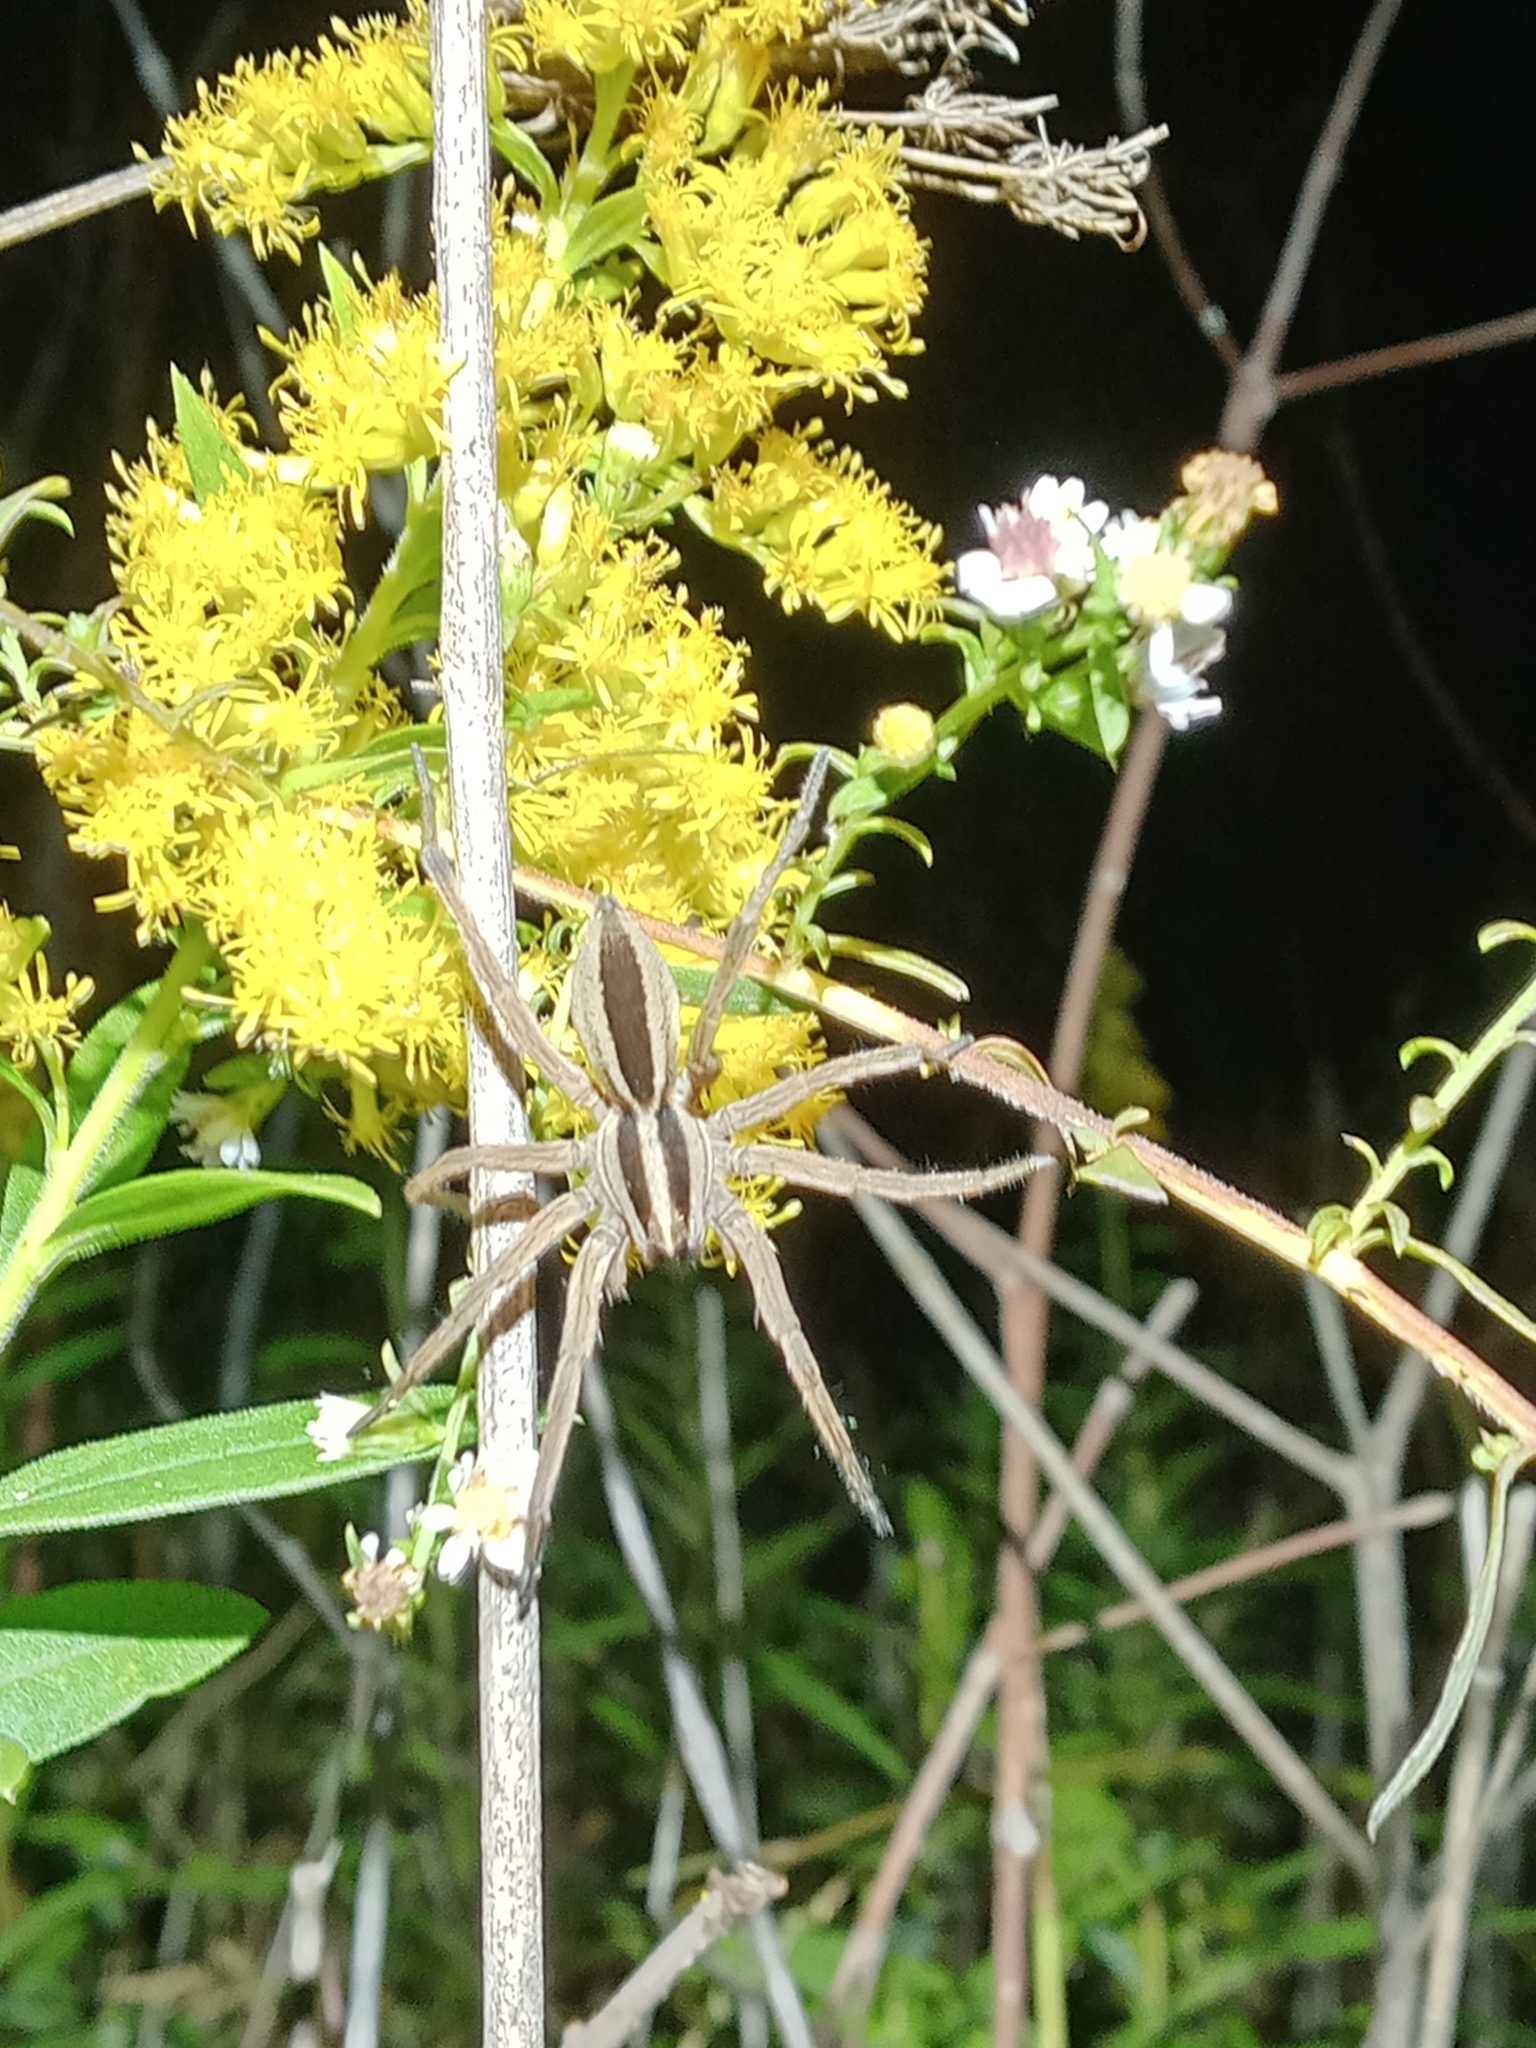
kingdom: Animalia
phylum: Arthropoda
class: Arachnida
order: Araneae
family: Lycosidae
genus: Rabidosa
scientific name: Rabidosa punctulata
